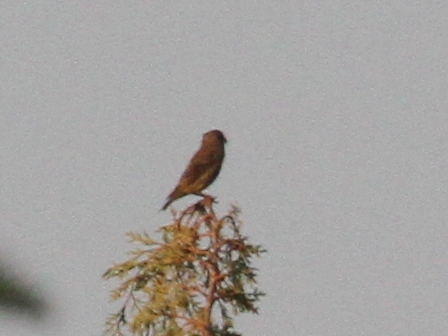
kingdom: Animalia
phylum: Chordata
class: Aves
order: Passeriformes
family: Fringillidae
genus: Loxia
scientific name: Loxia curvirostra
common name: Red crossbill
